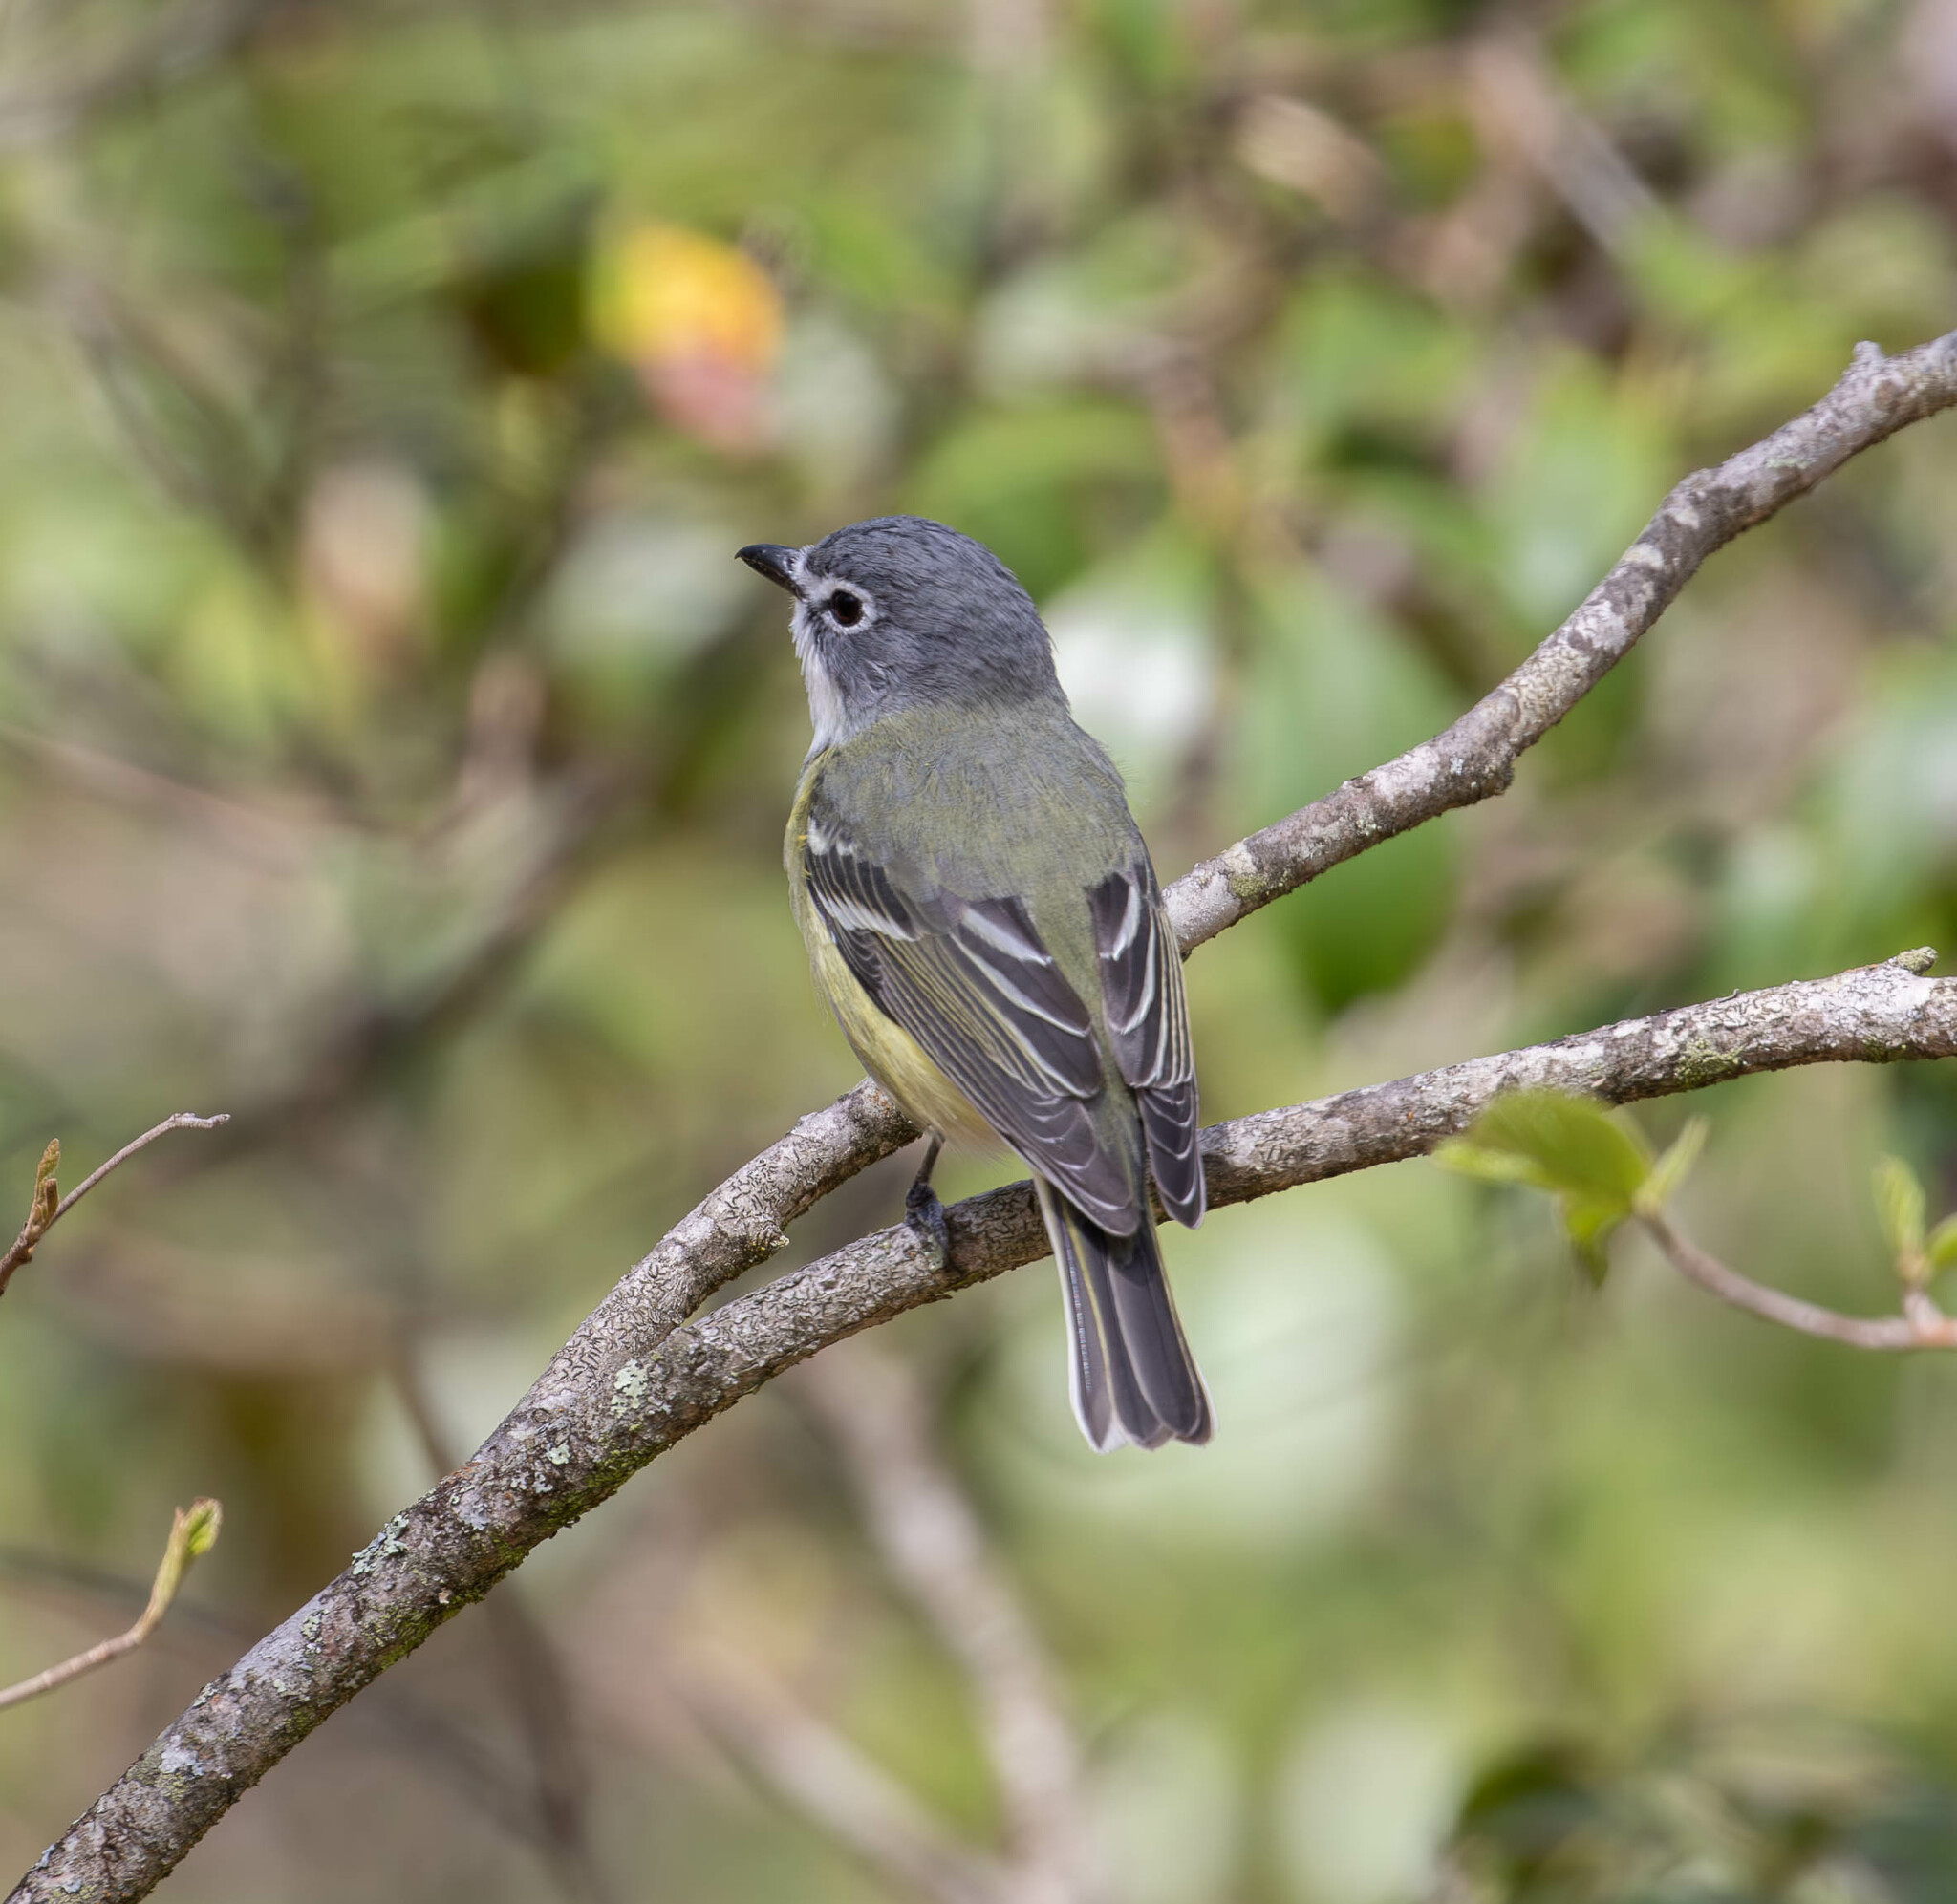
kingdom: Animalia
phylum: Chordata
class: Aves
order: Passeriformes
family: Vireonidae
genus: Vireo
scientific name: Vireo solitarius
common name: Blue-headed vireo
